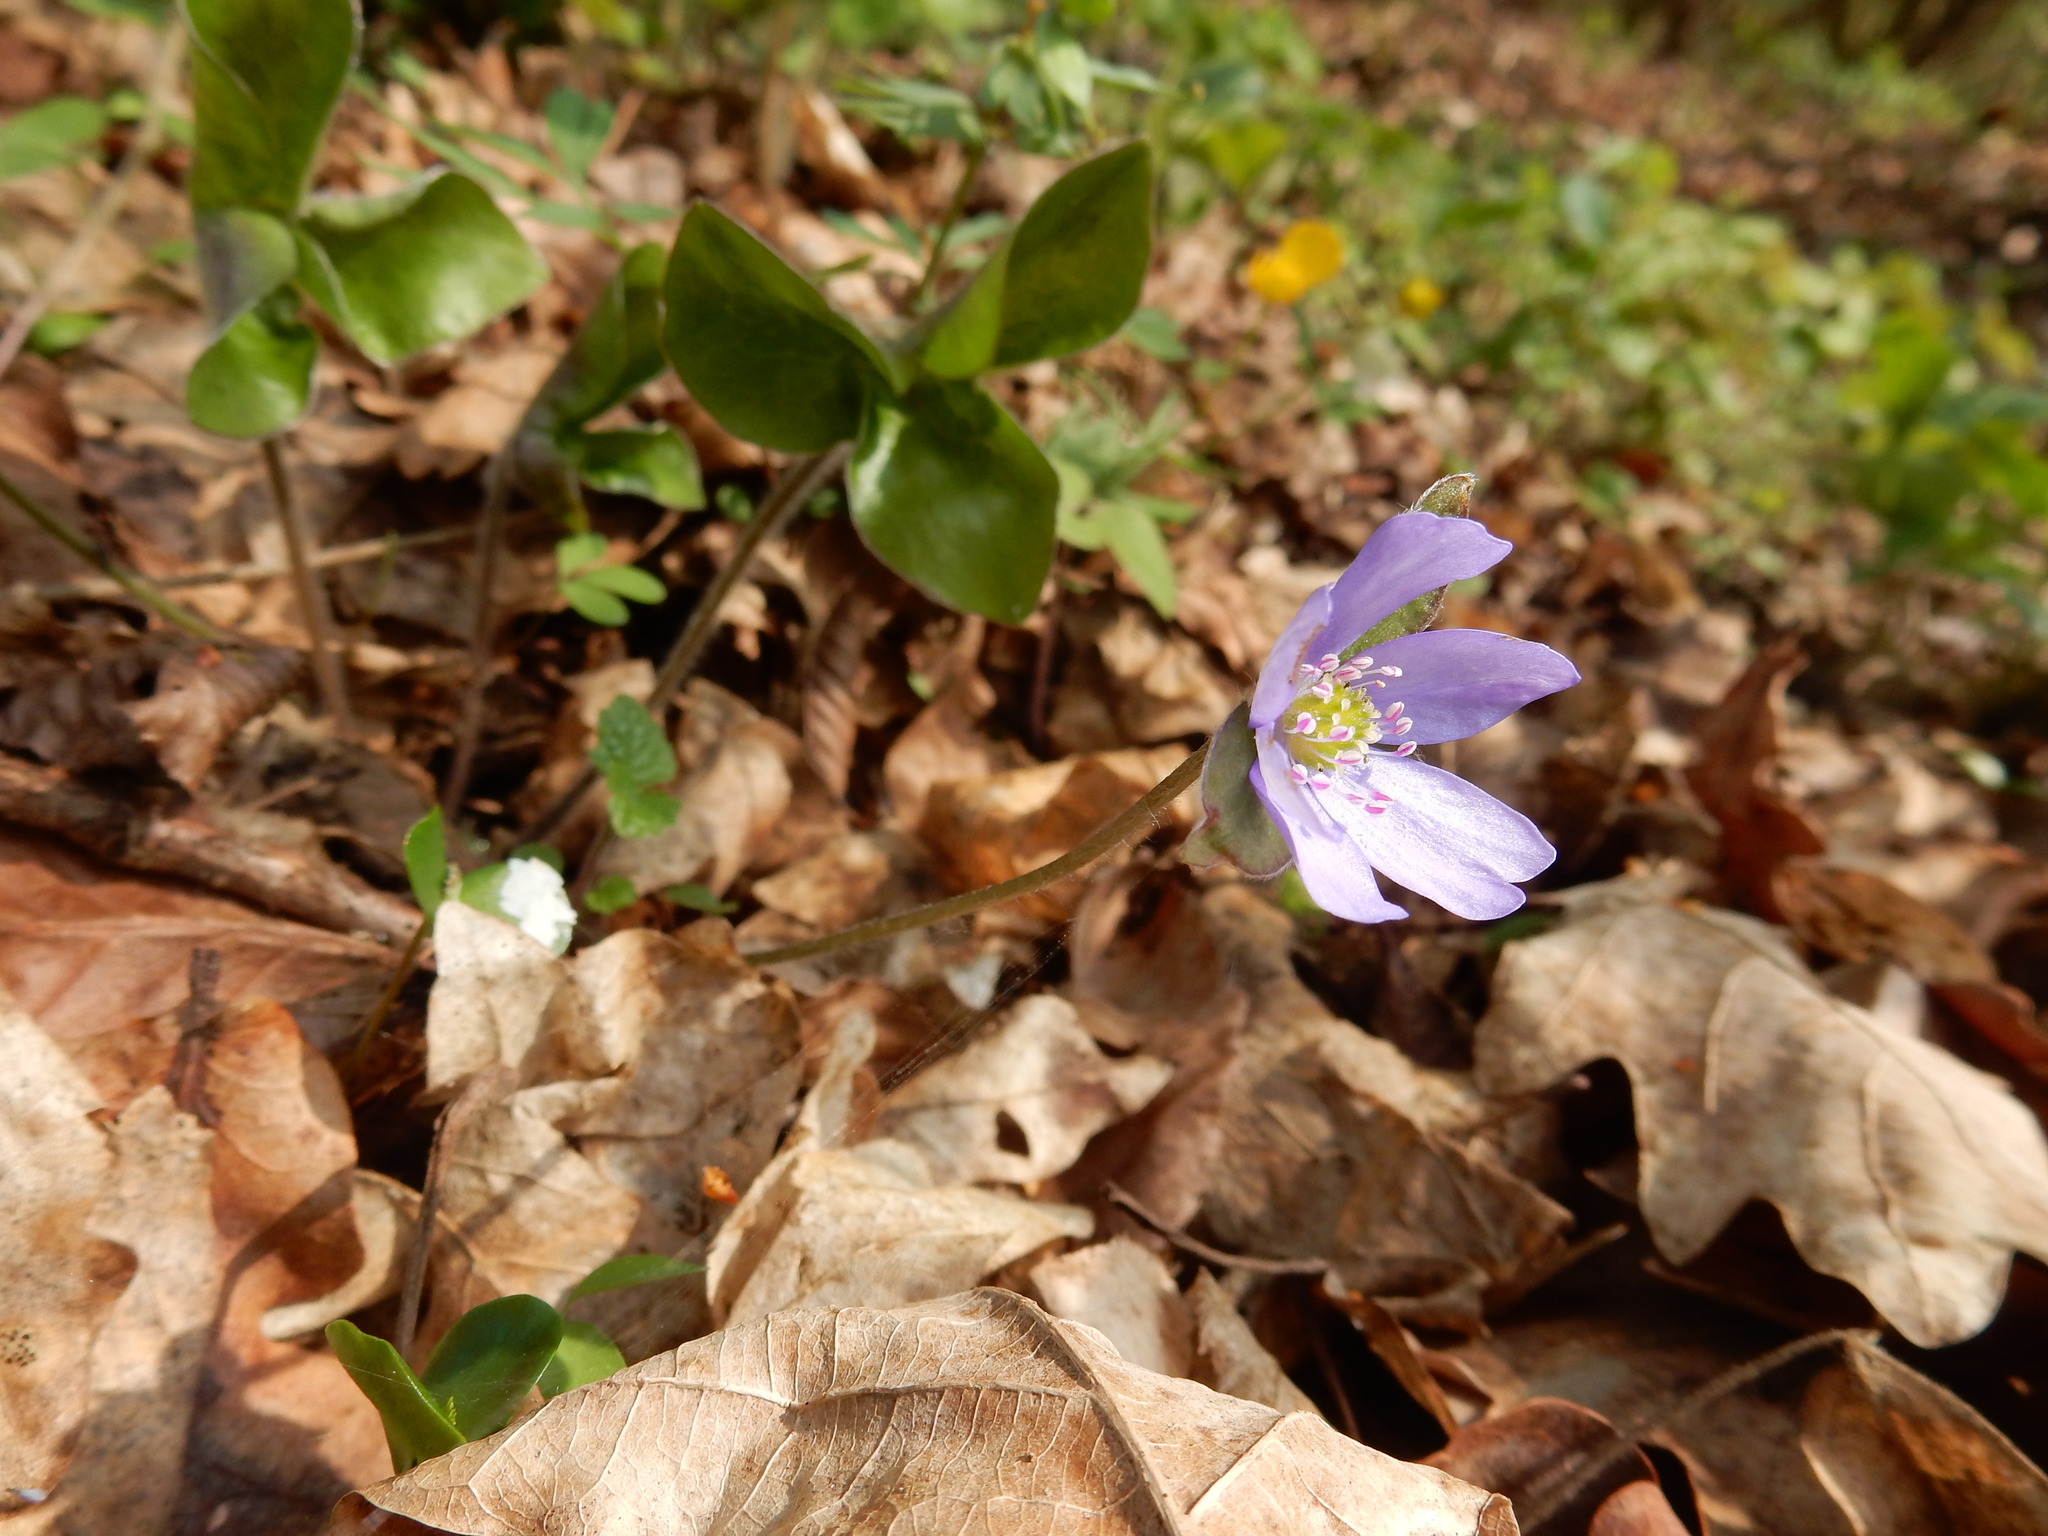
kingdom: Plantae
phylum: Tracheophyta
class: Magnoliopsida
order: Ranunculales
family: Ranunculaceae
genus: Hepatica
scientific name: Hepatica nobilis
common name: Liverleaf
